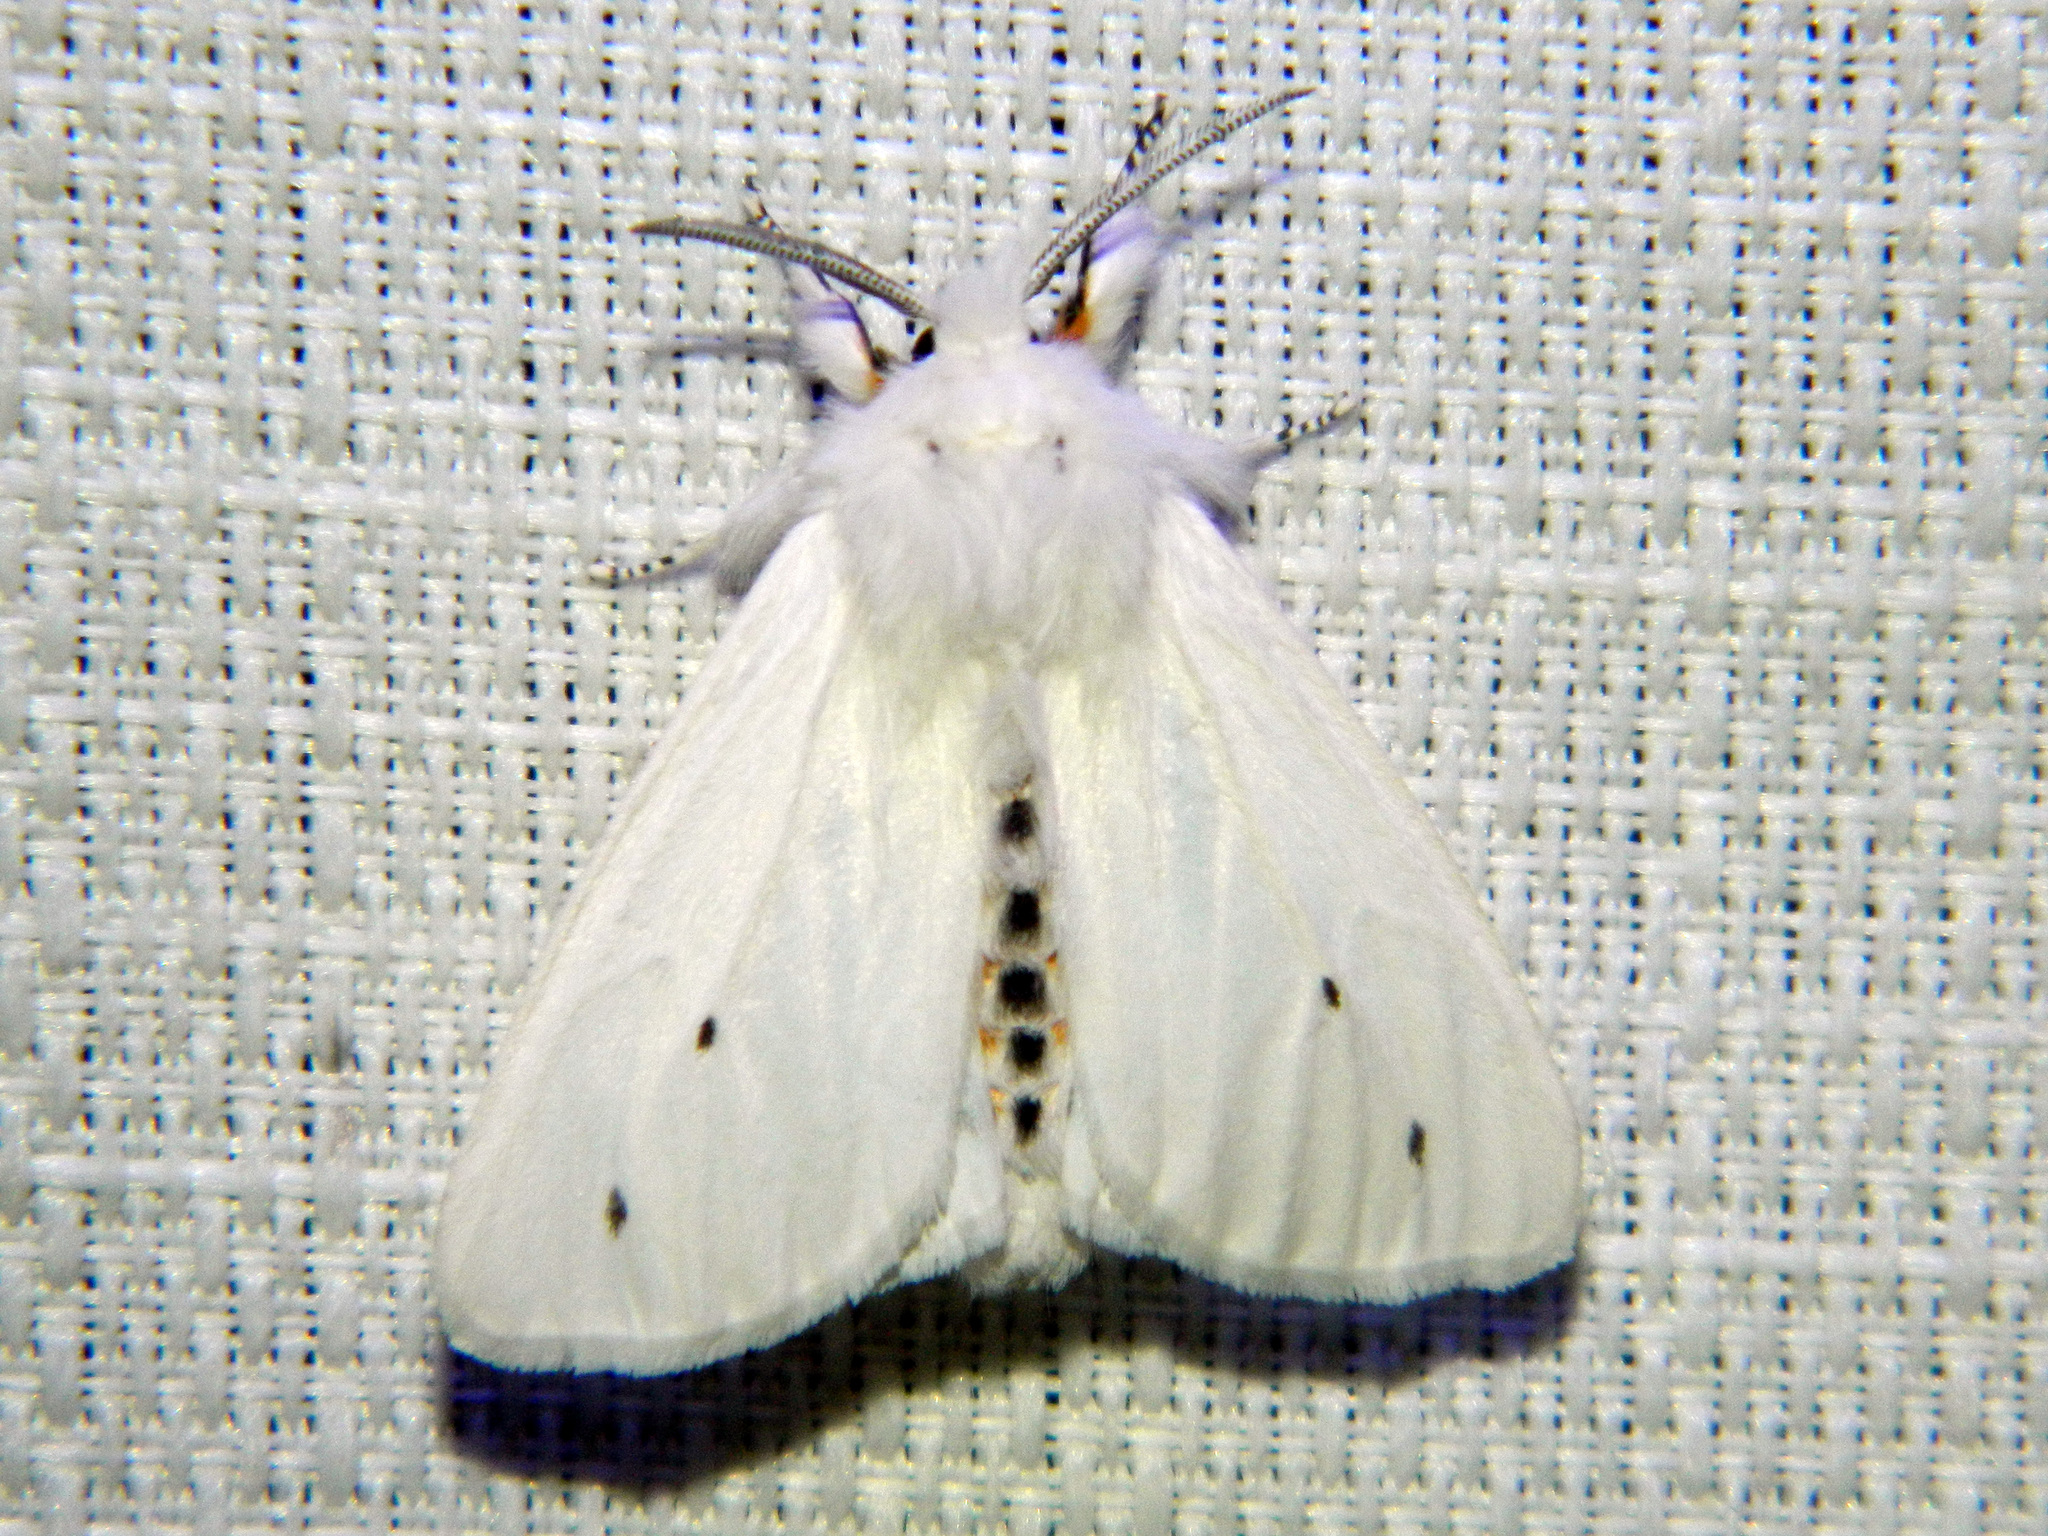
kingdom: Animalia
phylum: Arthropoda
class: Insecta
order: Lepidoptera
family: Erebidae
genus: Spilosoma
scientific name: Spilosoma virginica
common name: Virginia tiger moth
